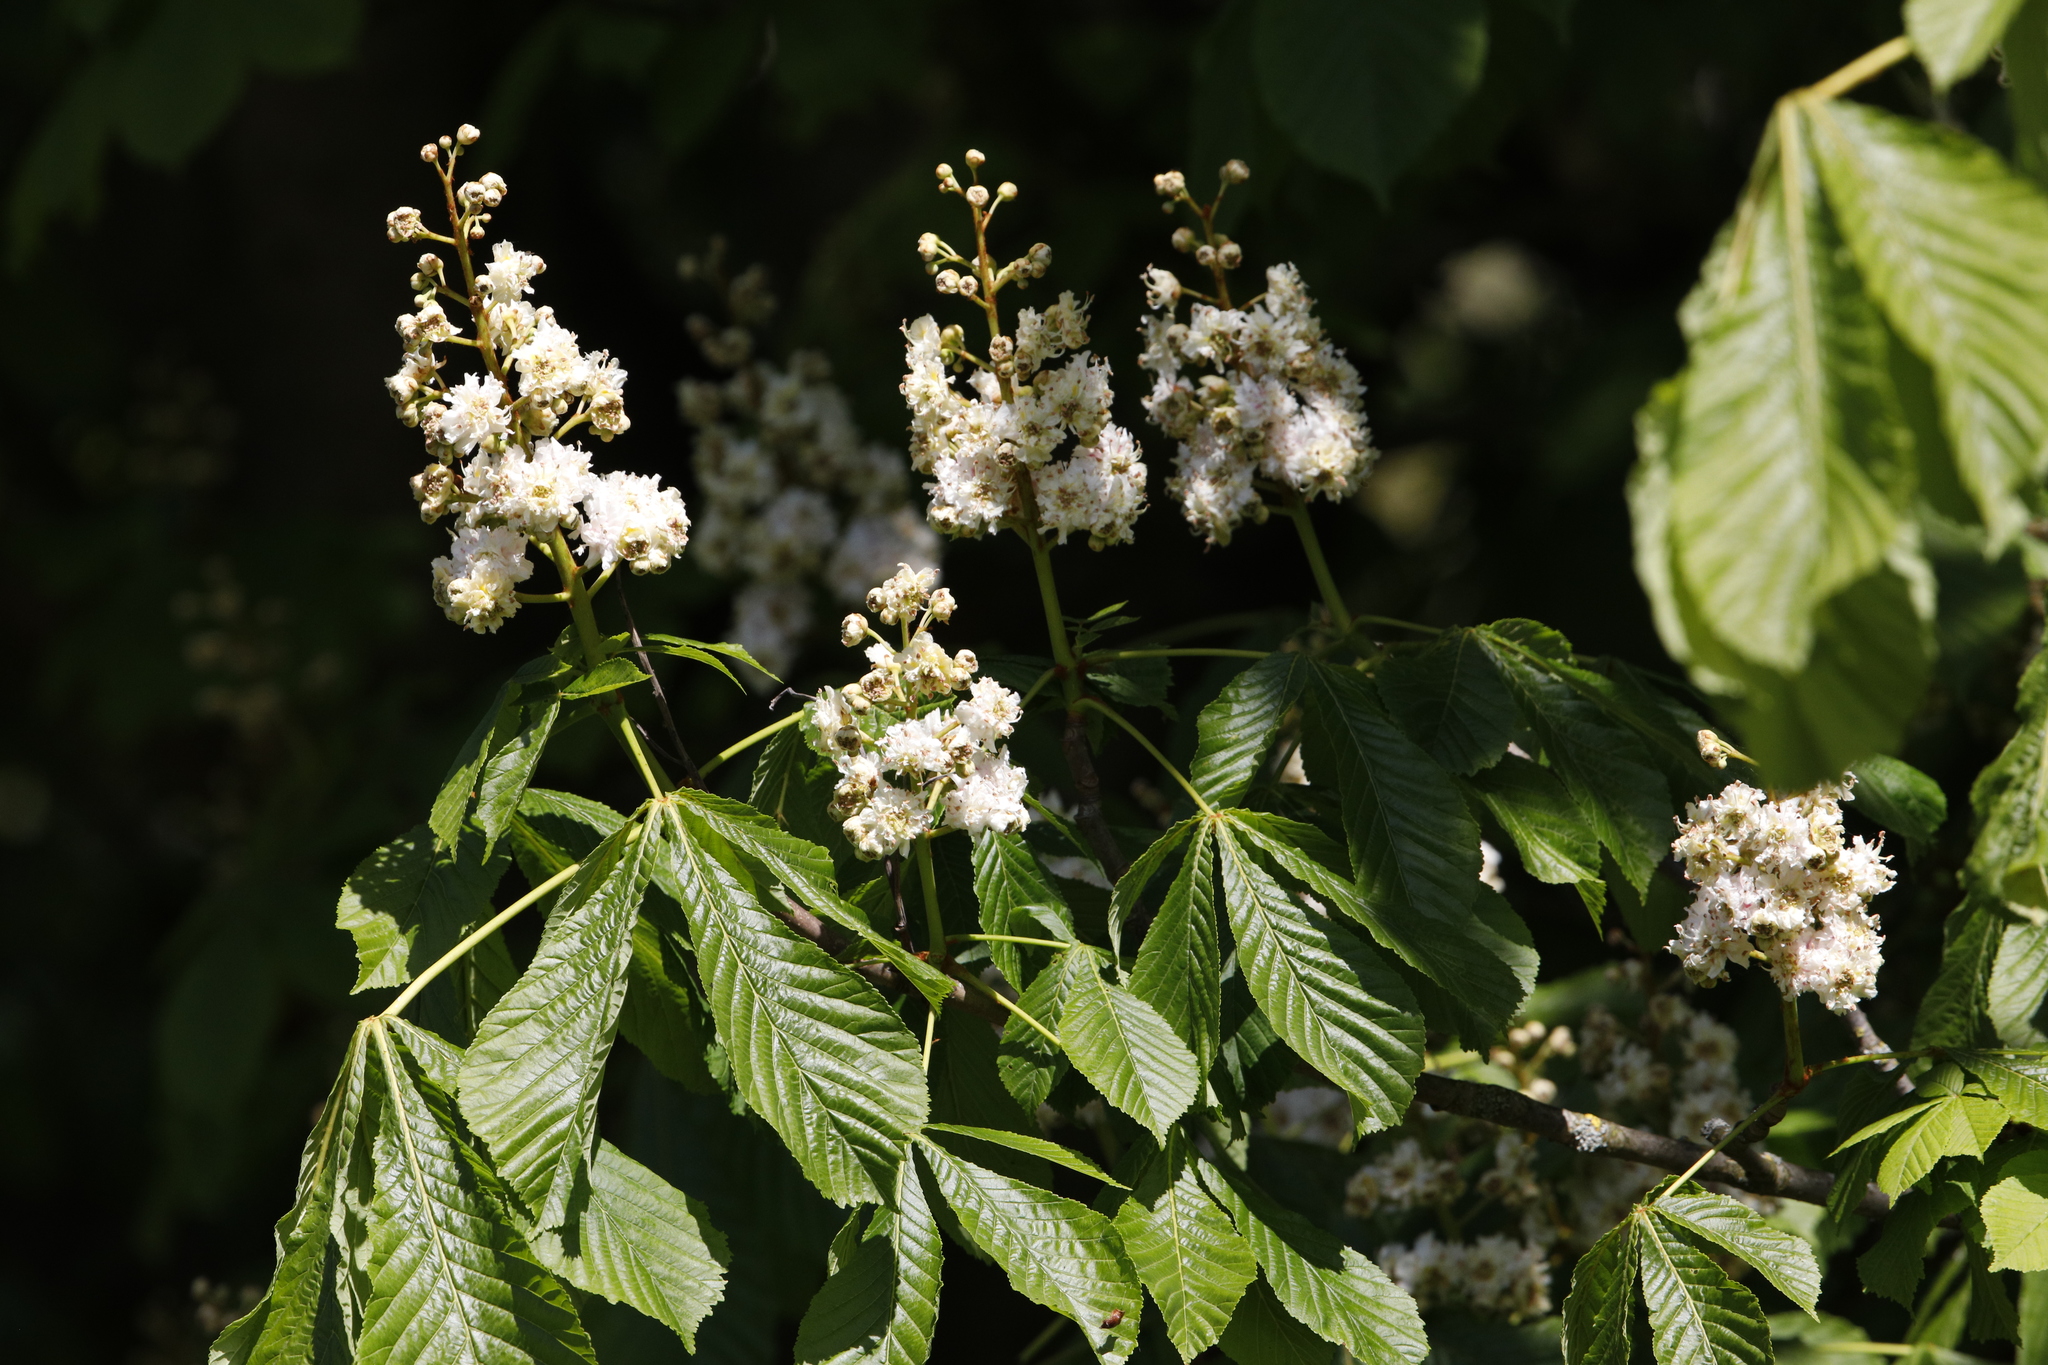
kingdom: Plantae
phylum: Tracheophyta
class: Magnoliopsida
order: Sapindales
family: Sapindaceae
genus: Aesculus
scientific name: Aesculus hippocastanum
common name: Horse-chestnut
